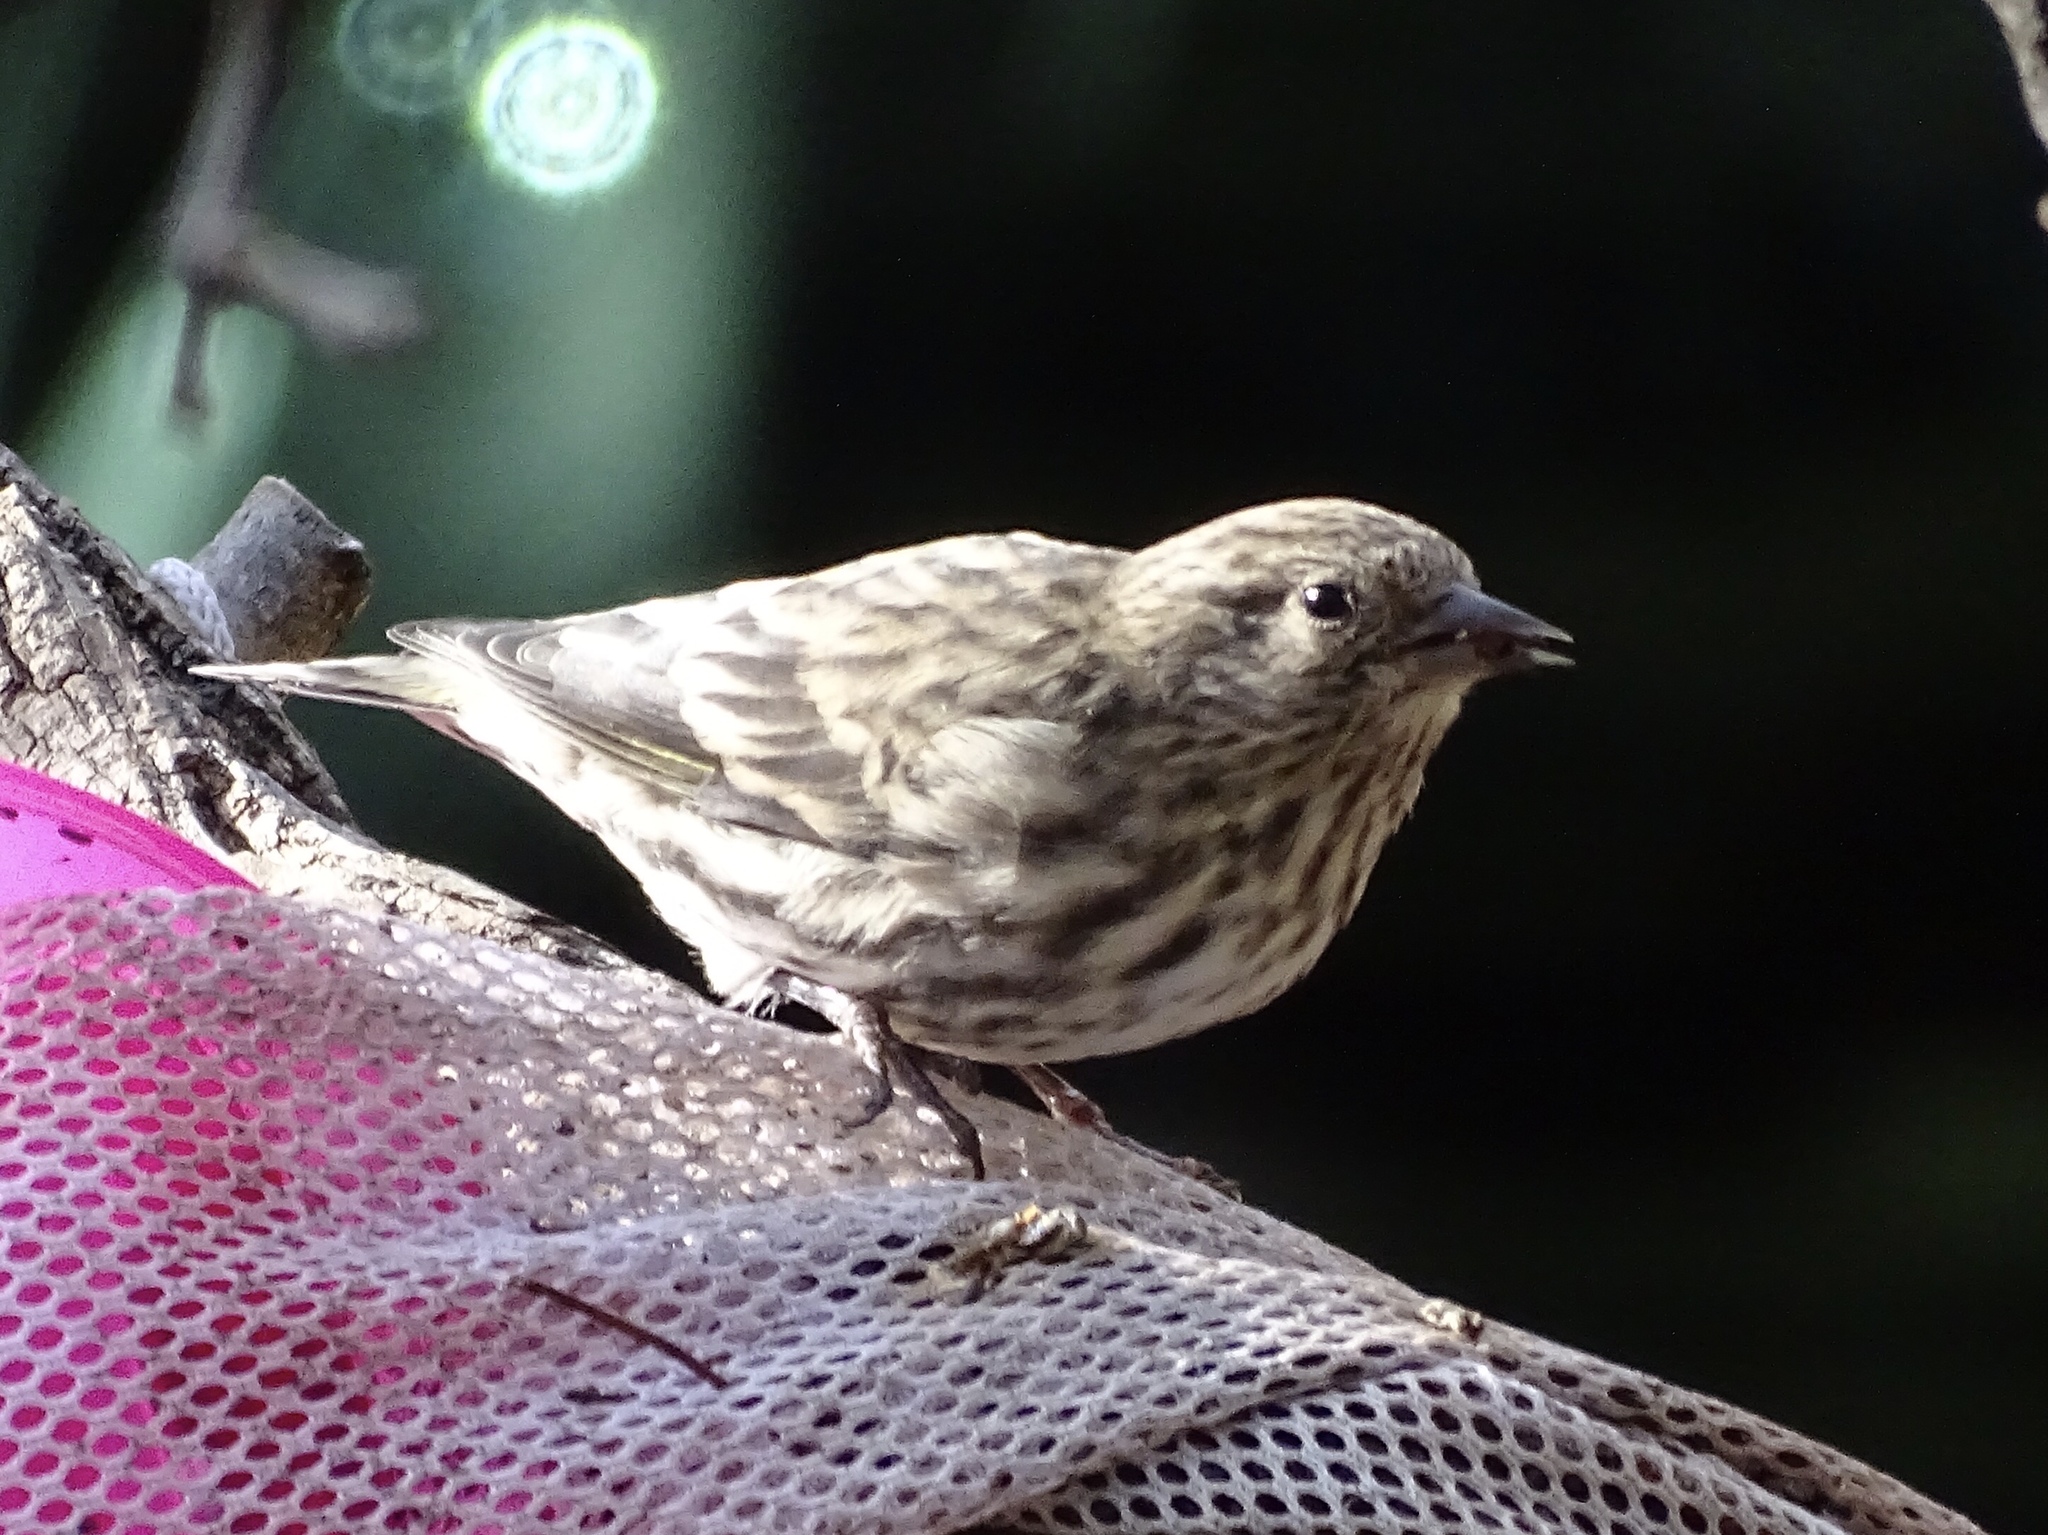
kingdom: Animalia
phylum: Chordata
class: Aves
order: Passeriformes
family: Fringillidae
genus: Spinus
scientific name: Spinus pinus
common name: Pine siskin
